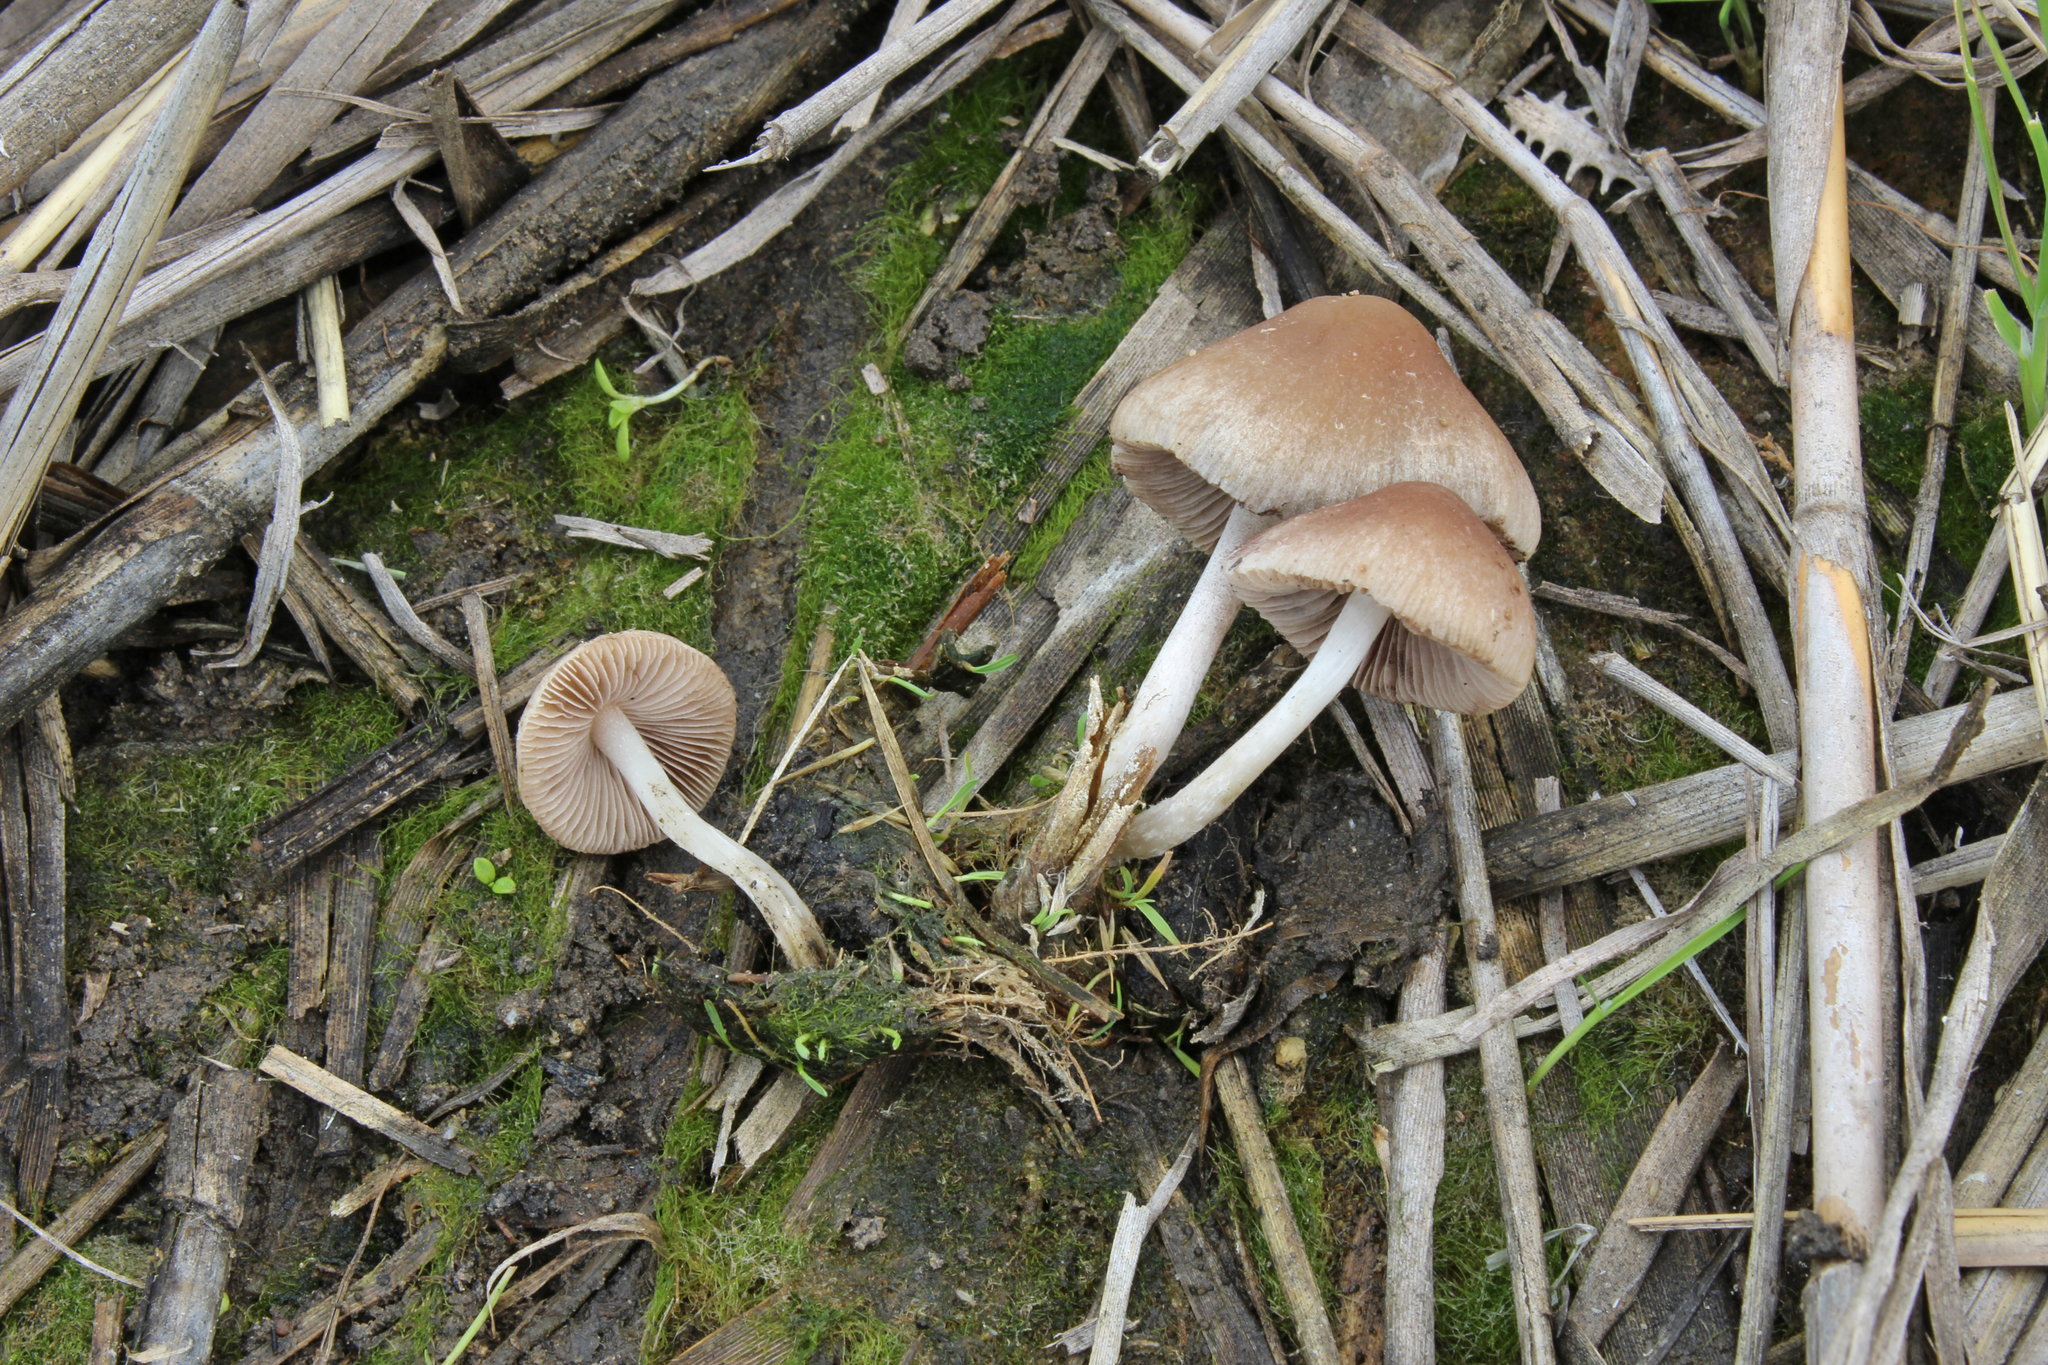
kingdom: Fungi
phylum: Basidiomycota
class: Agaricomycetes
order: Agaricales
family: Psathyrellaceae
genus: Candolleomyces
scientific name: Candolleomyces halophilus
